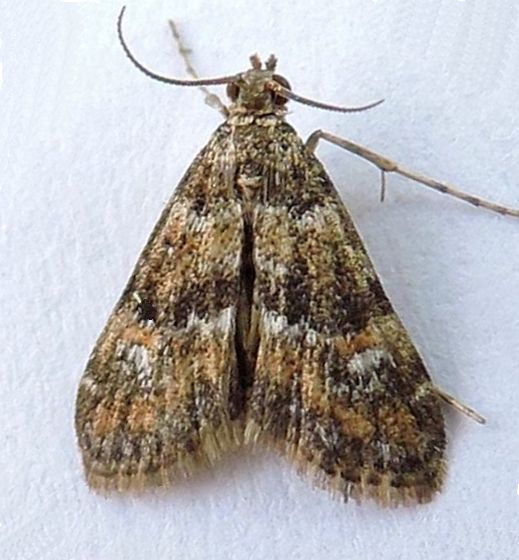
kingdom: Animalia
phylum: Arthropoda
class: Insecta
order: Lepidoptera
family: Crambidae
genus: Elophila
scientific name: Elophila occidentalis
